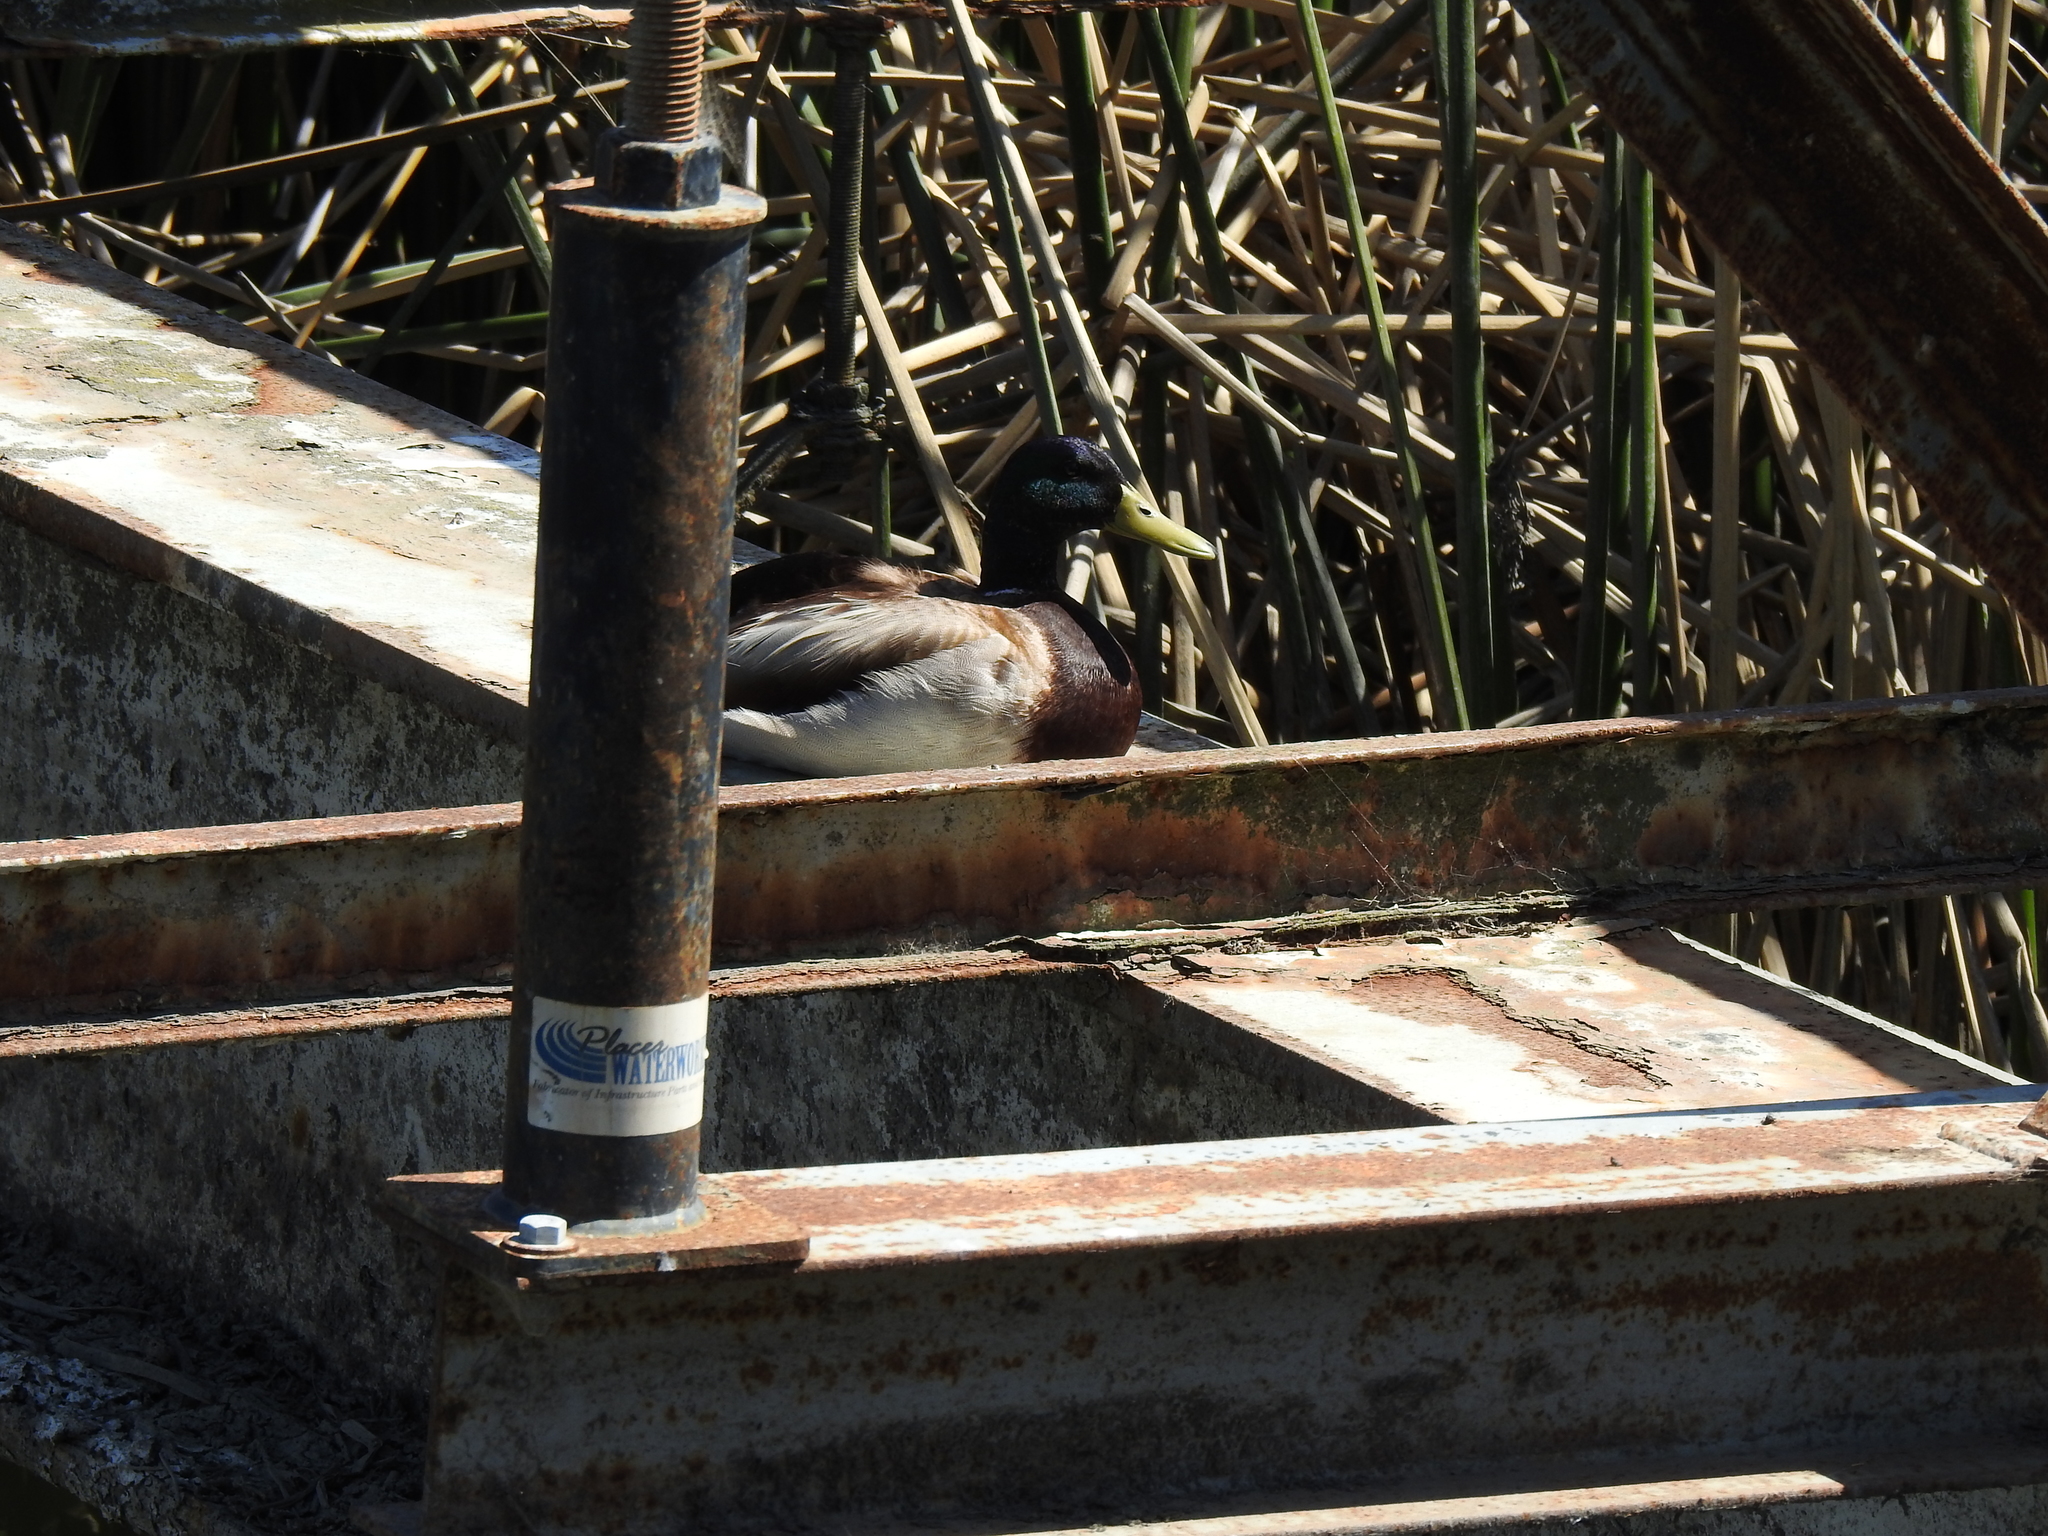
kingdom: Animalia
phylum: Chordata
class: Aves
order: Anseriformes
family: Anatidae
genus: Anas
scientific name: Anas platyrhynchos
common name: Mallard
